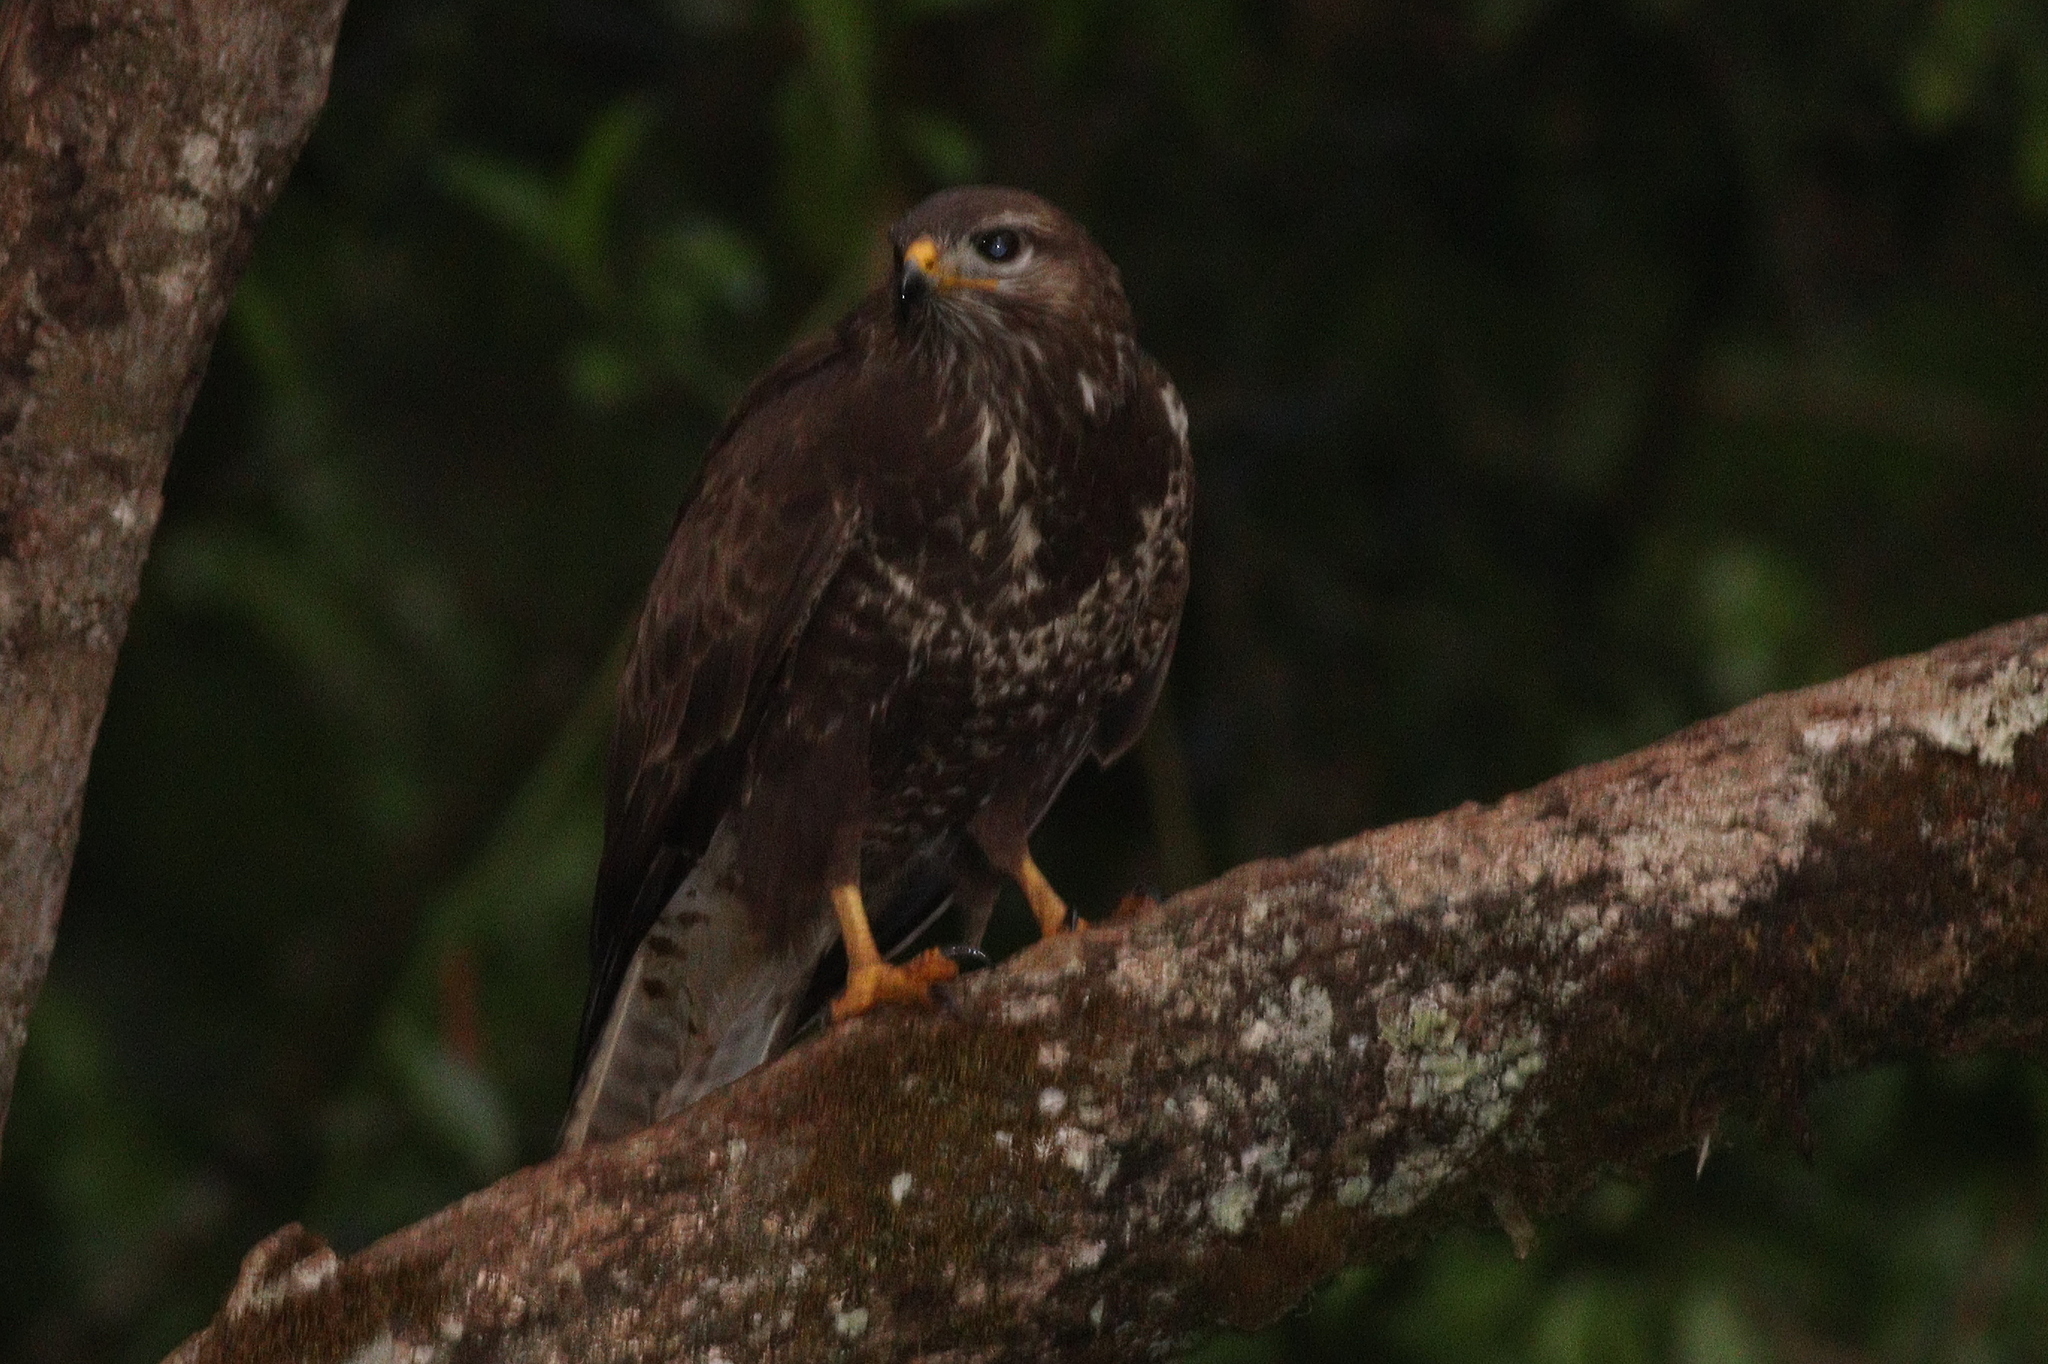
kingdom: Animalia
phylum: Chordata
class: Aves
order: Accipitriformes
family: Accipitridae
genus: Buteo
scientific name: Buteo buteo
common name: Common buzzard
